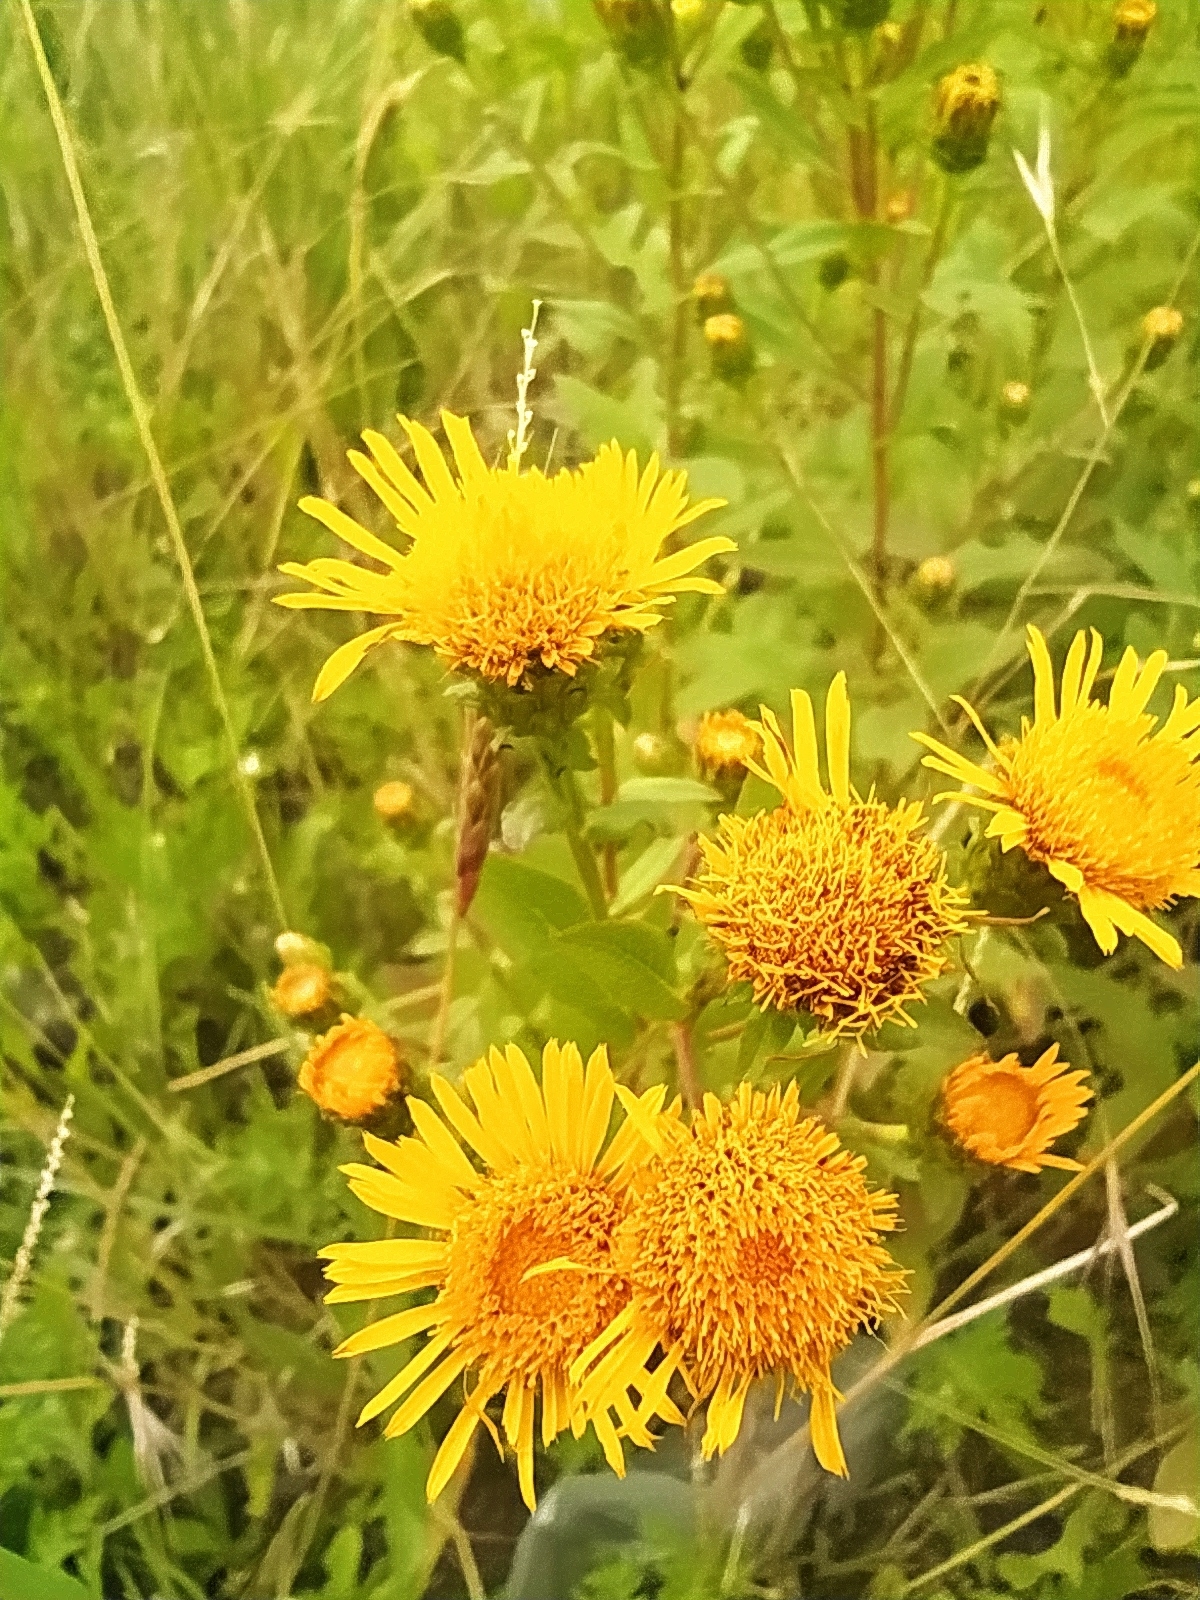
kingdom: Plantae
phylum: Tracheophyta
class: Magnoliopsida
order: Asterales
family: Asteraceae
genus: Pentanema
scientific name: Pentanema asperum
